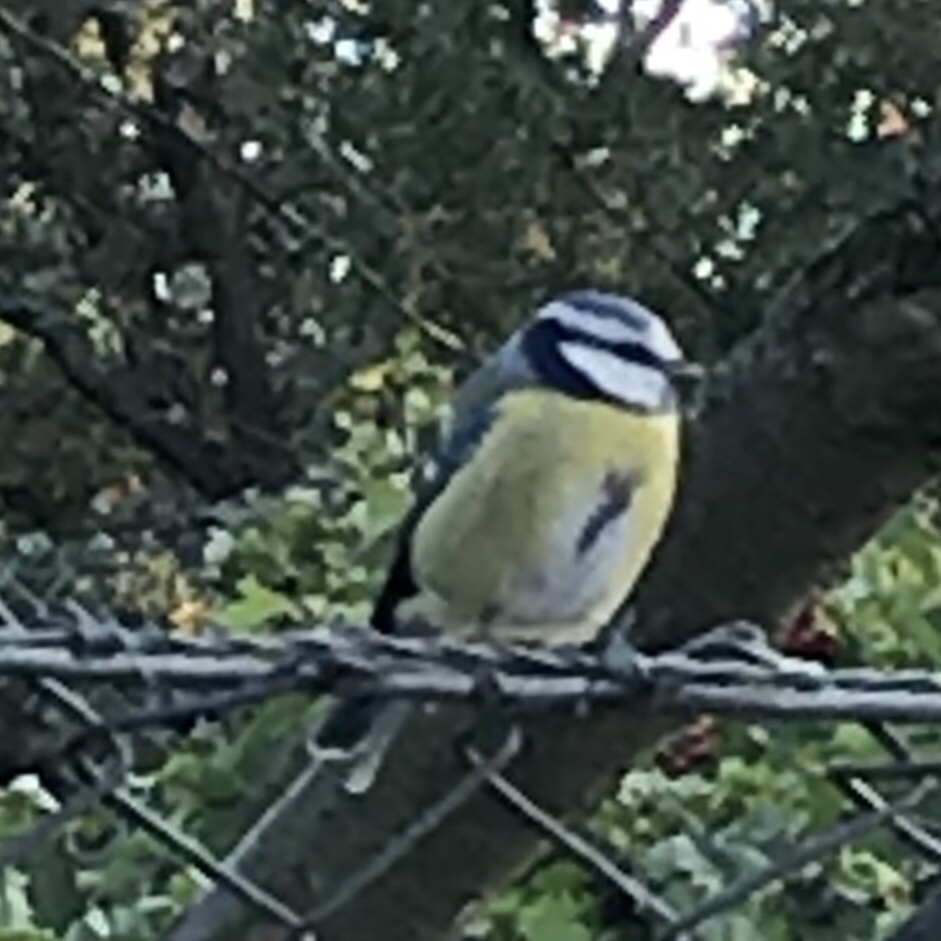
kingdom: Animalia
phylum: Chordata
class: Aves
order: Passeriformes
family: Paridae
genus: Cyanistes
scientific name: Cyanistes caeruleus
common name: Eurasian blue tit
